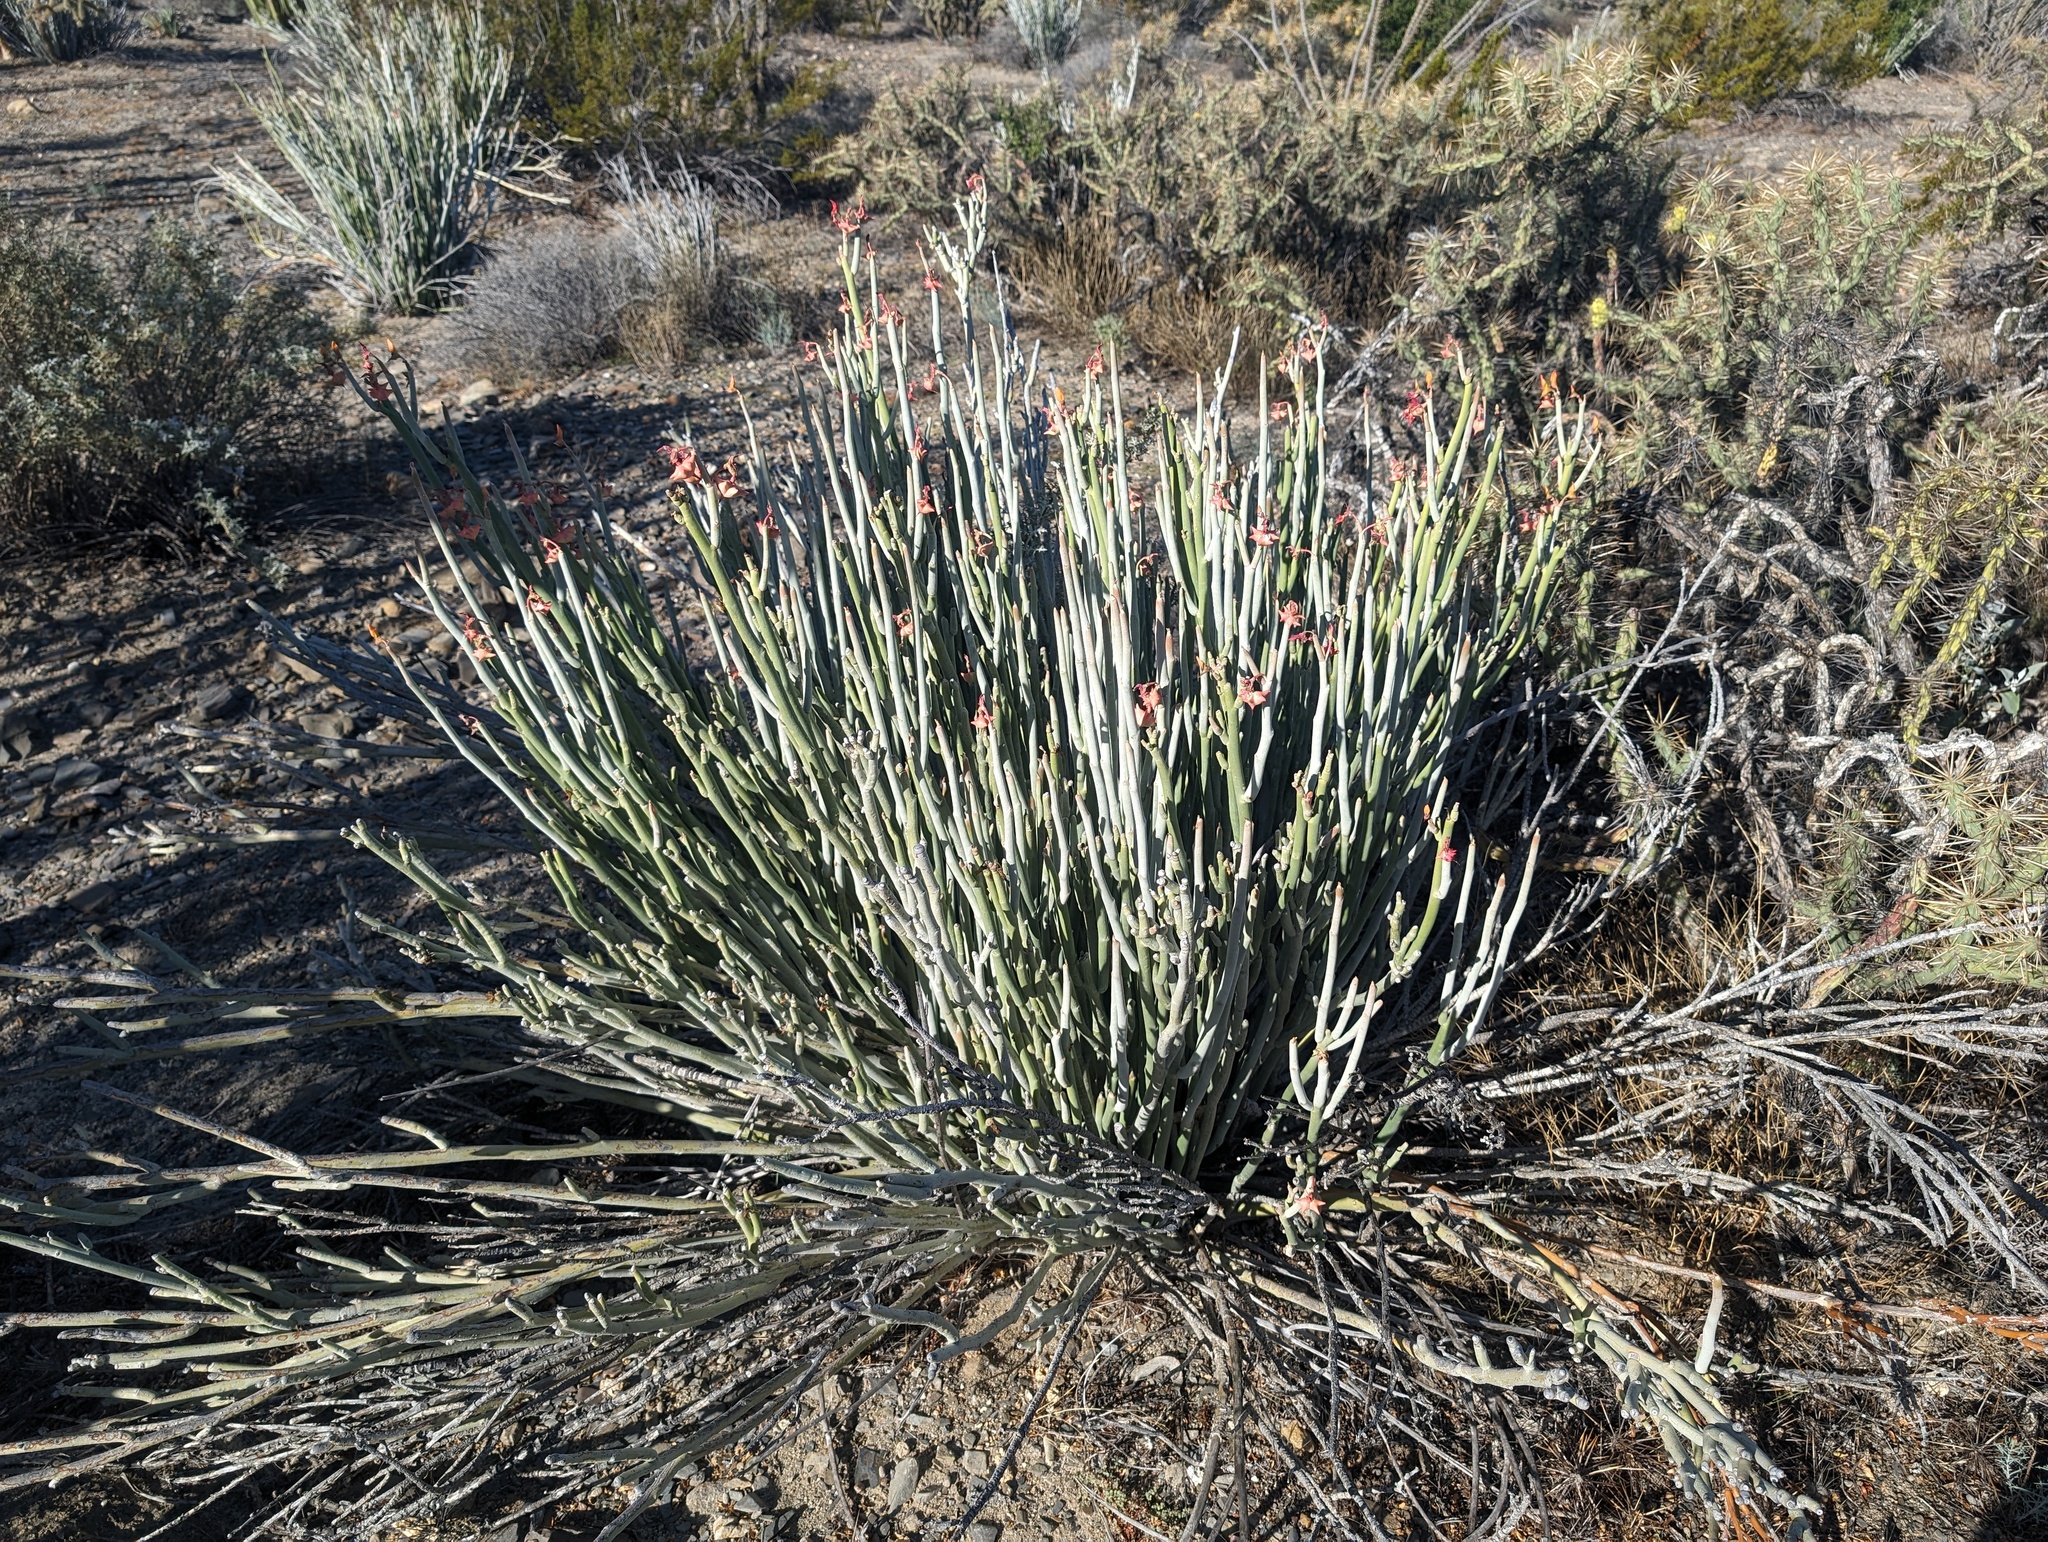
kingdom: Plantae
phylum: Tracheophyta
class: Magnoliopsida
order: Malpighiales
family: Euphorbiaceae
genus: Euphorbia
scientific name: Euphorbia lomelii
